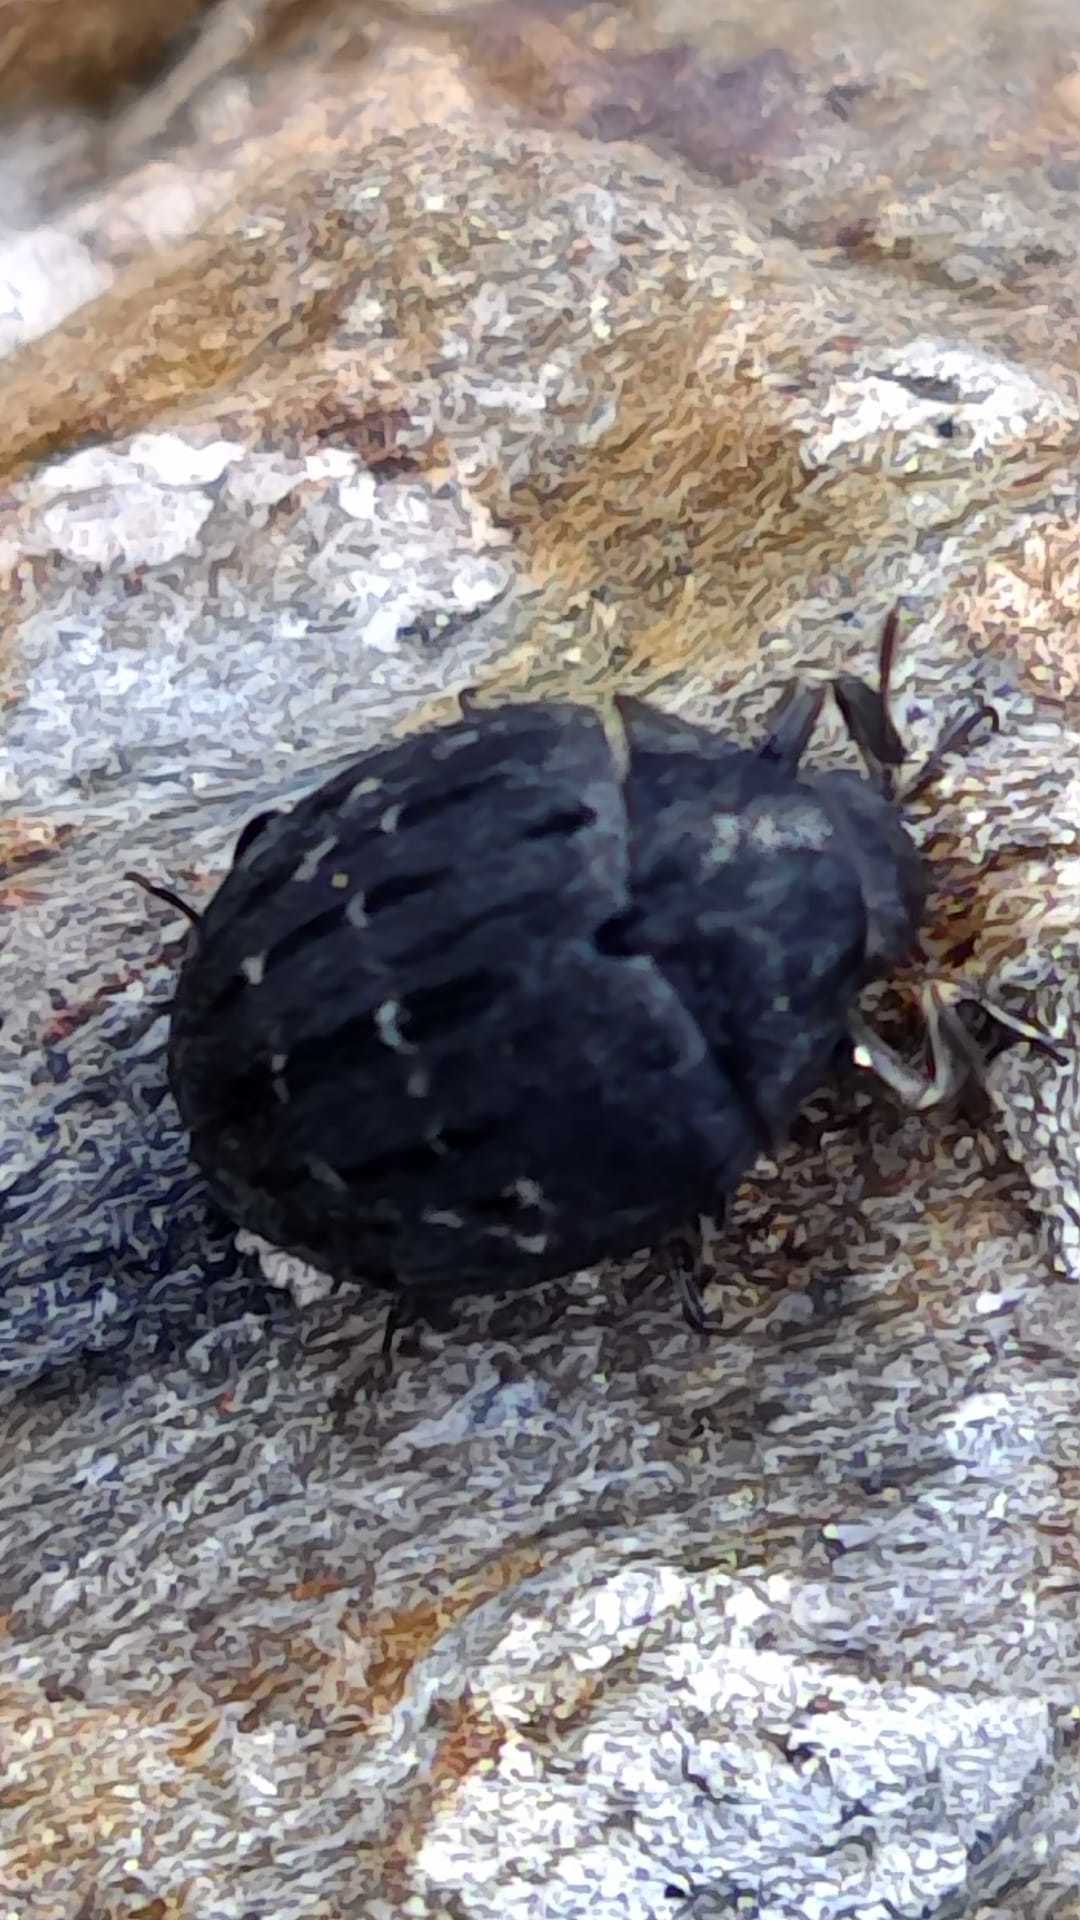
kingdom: Animalia
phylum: Arthropoda
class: Insecta
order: Coleoptera
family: Byrrhidae
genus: Byrrhus
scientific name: Byrrhus pustulatus
